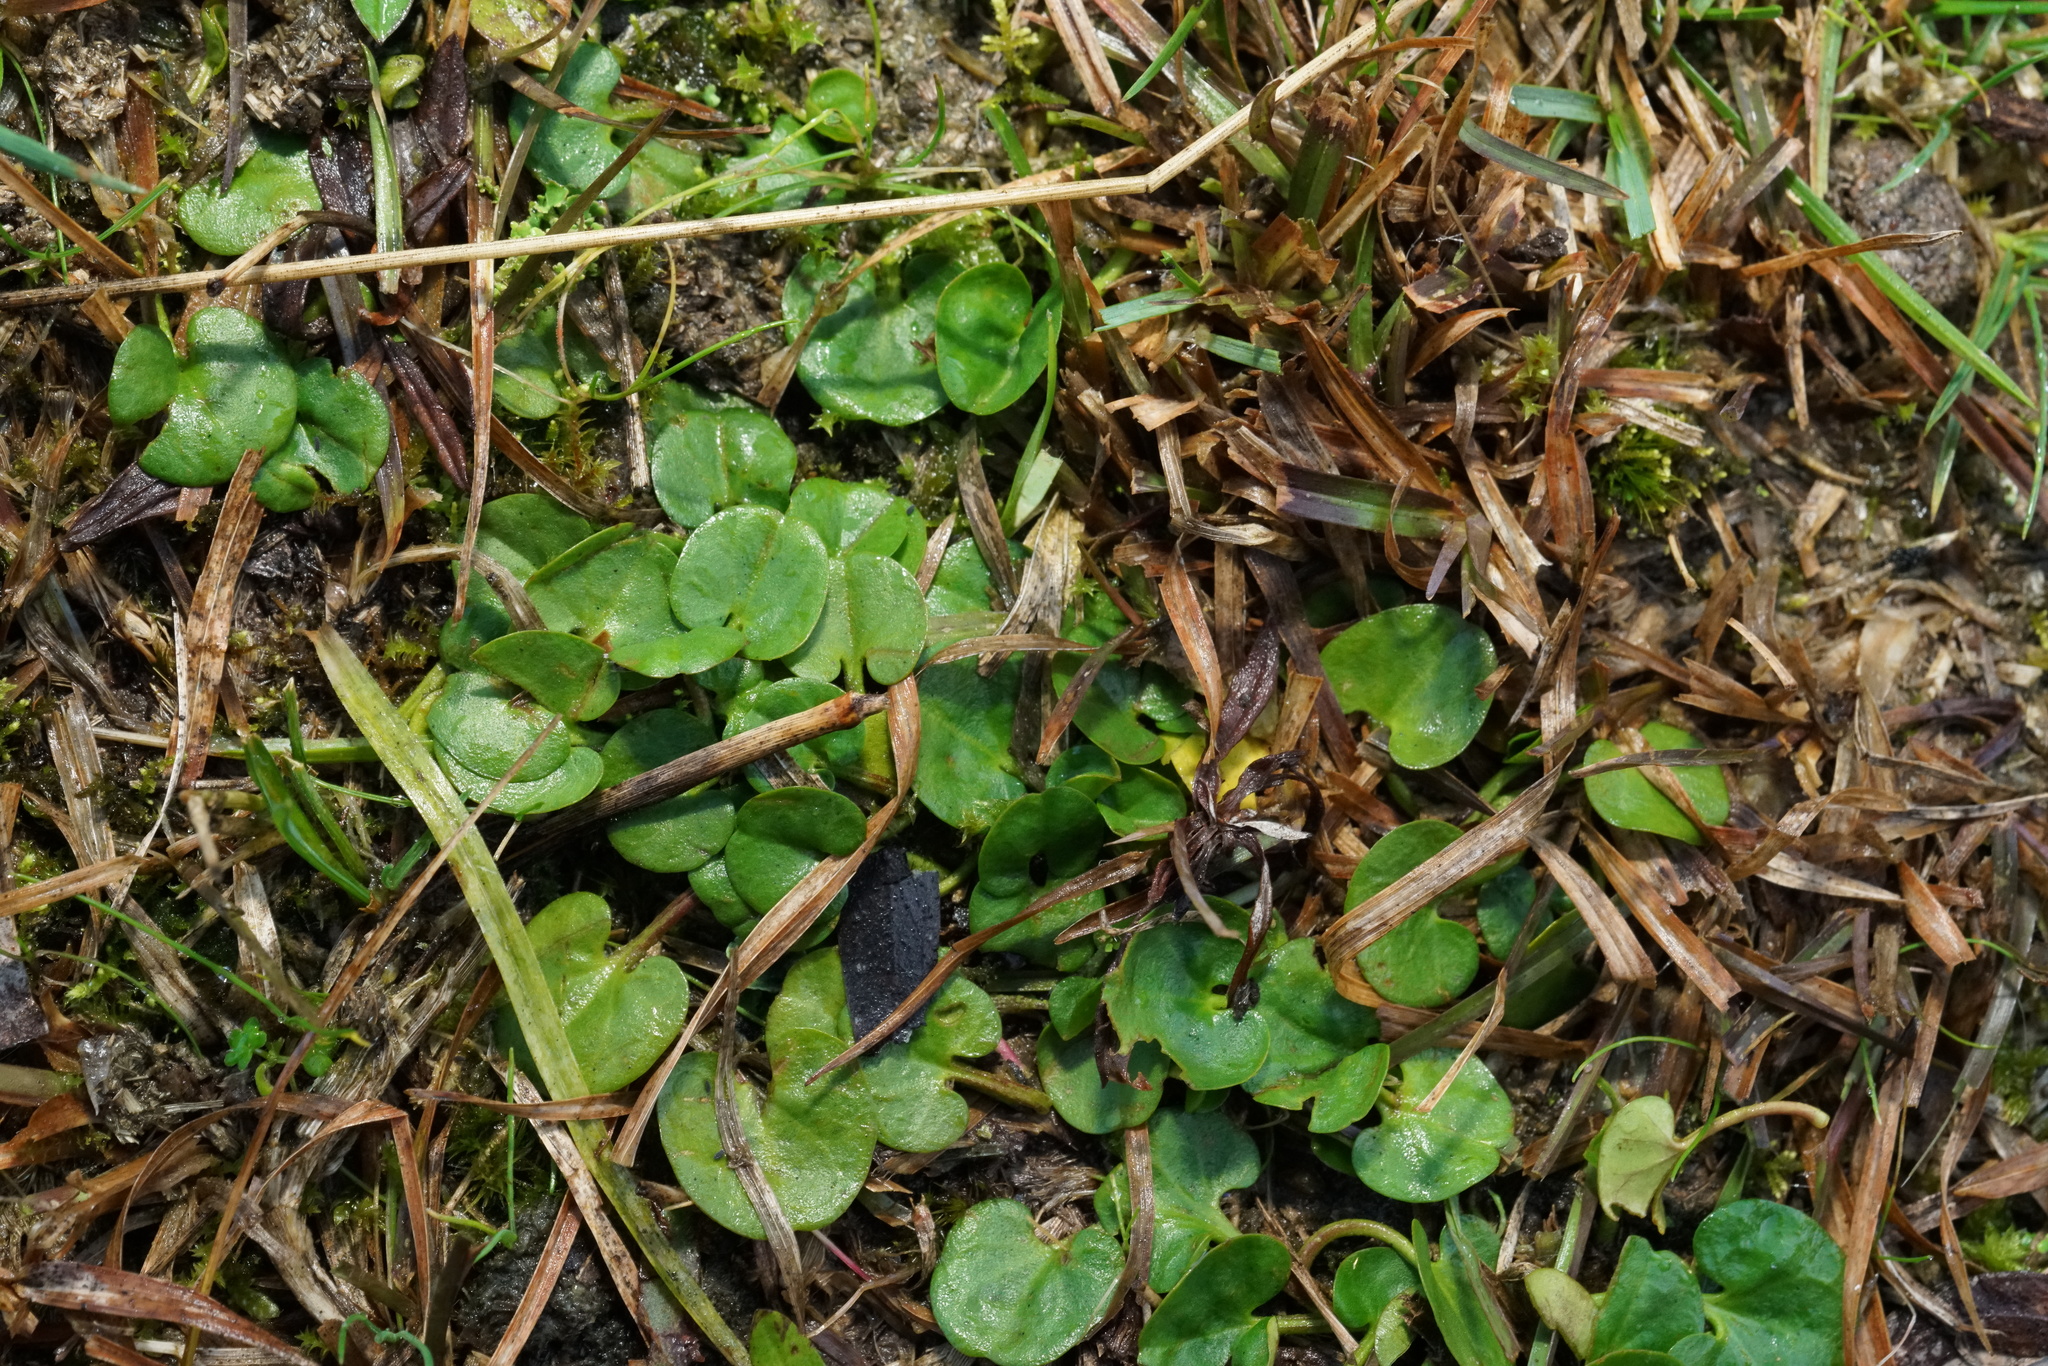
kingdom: Plantae
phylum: Tracheophyta
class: Magnoliopsida
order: Solanales
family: Convolvulaceae
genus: Dichondra
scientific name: Dichondra repens
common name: Kidneyweed
